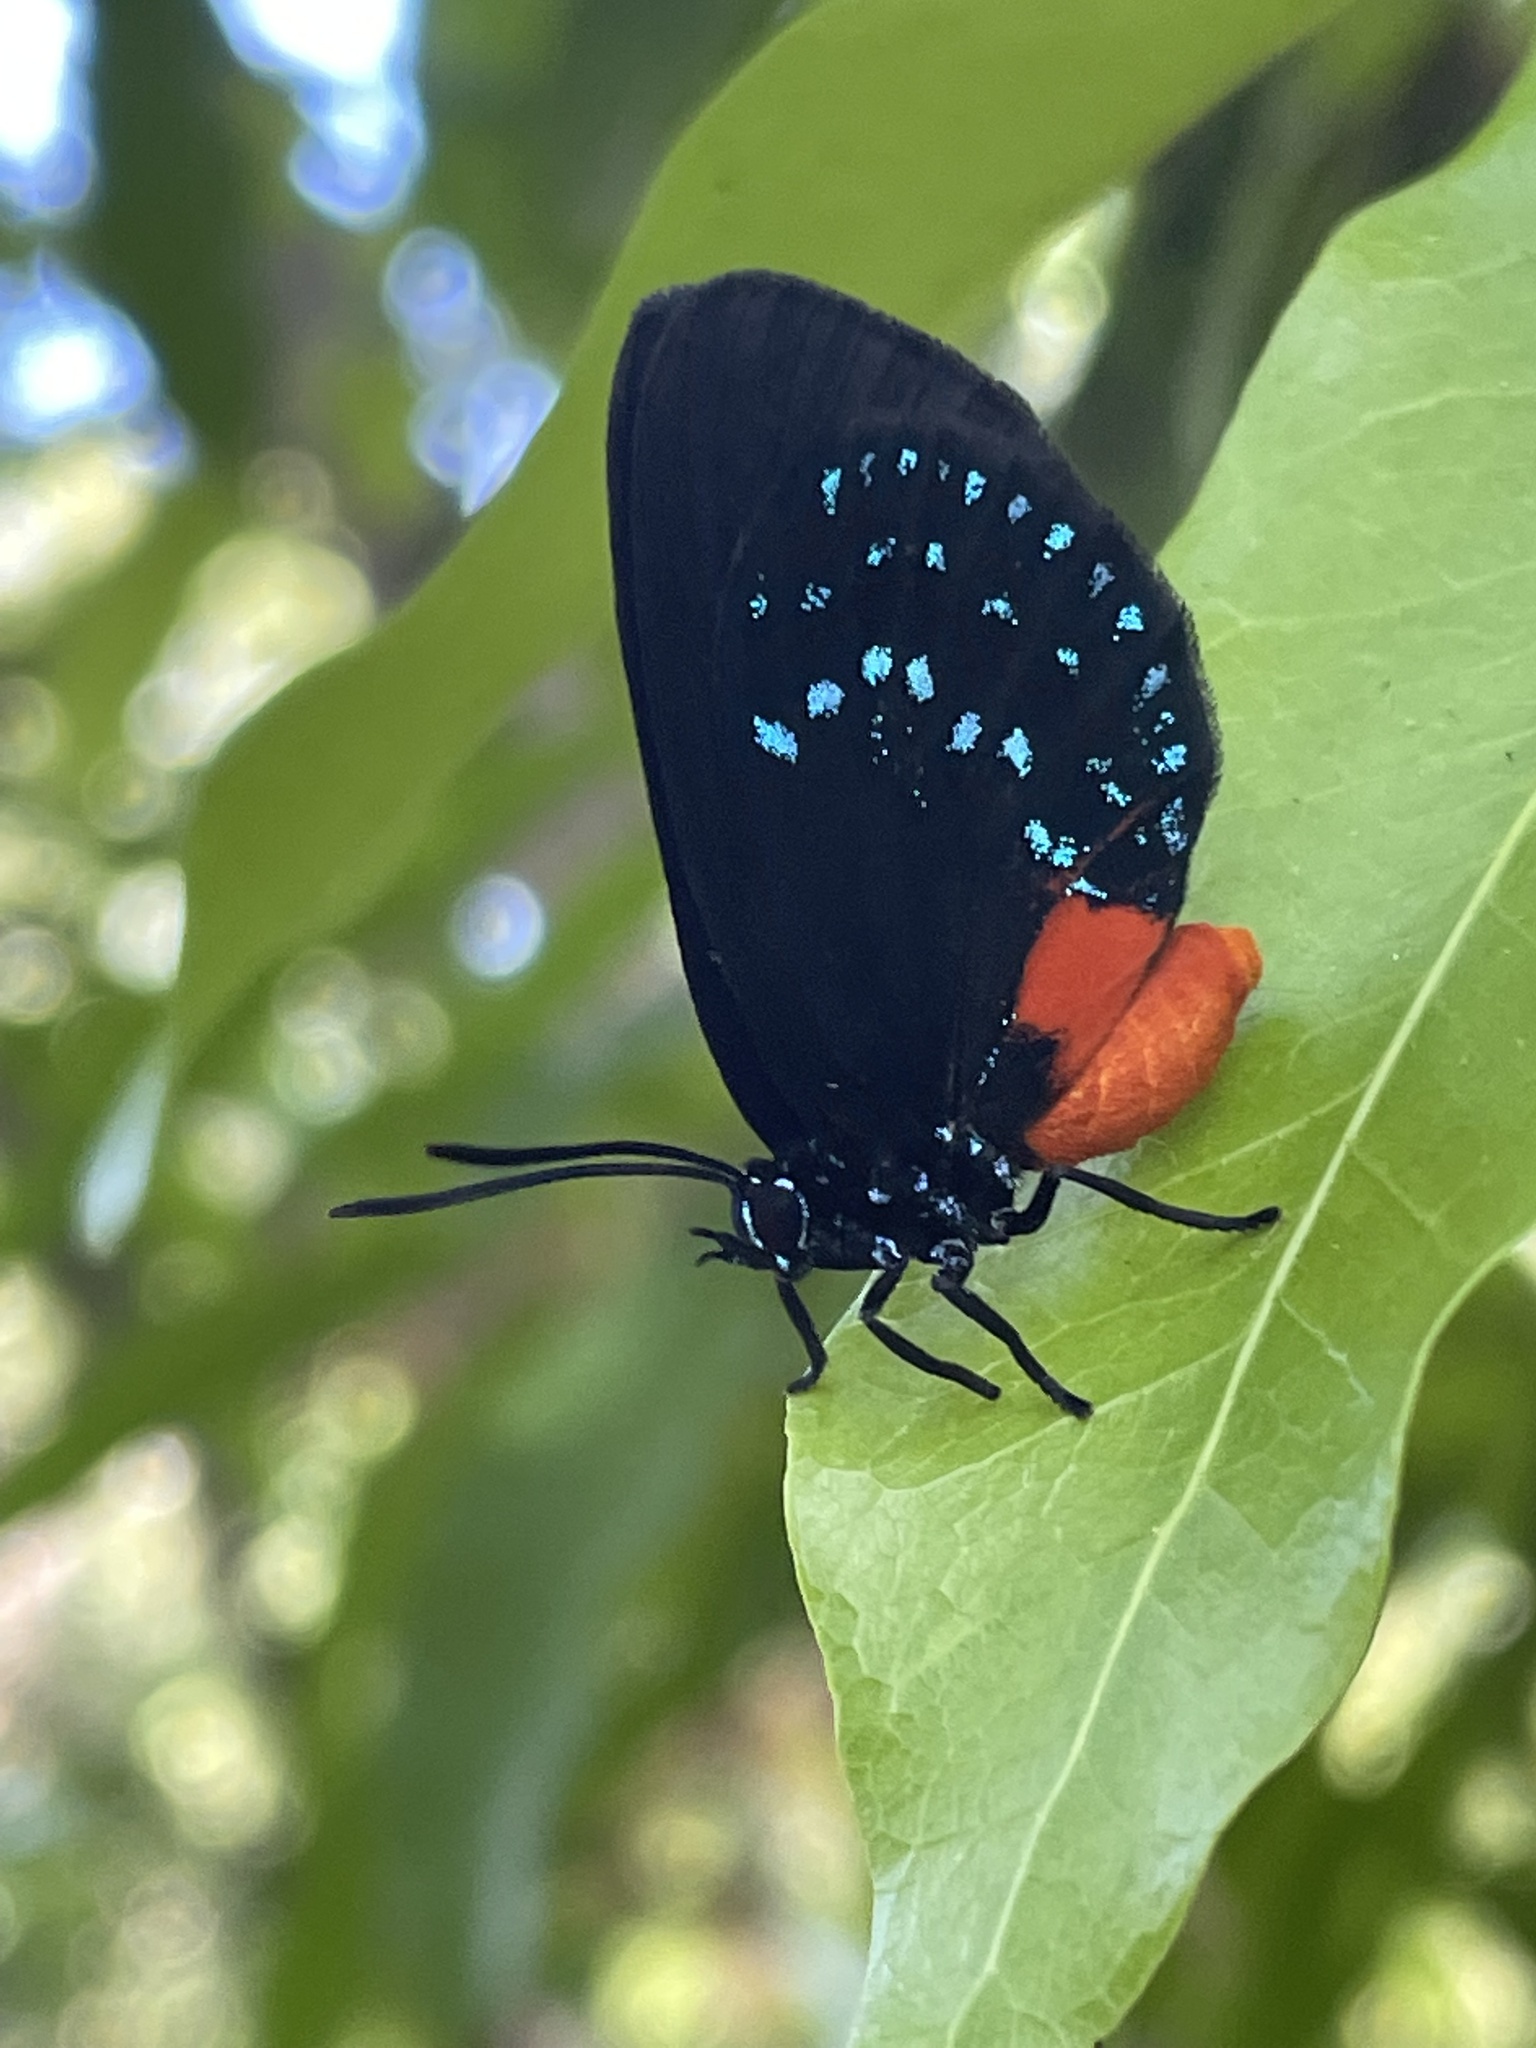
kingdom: Animalia
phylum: Arthropoda
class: Insecta
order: Lepidoptera
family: Lycaenidae
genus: Eumaeus
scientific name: Eumaeus atala
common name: Atala
